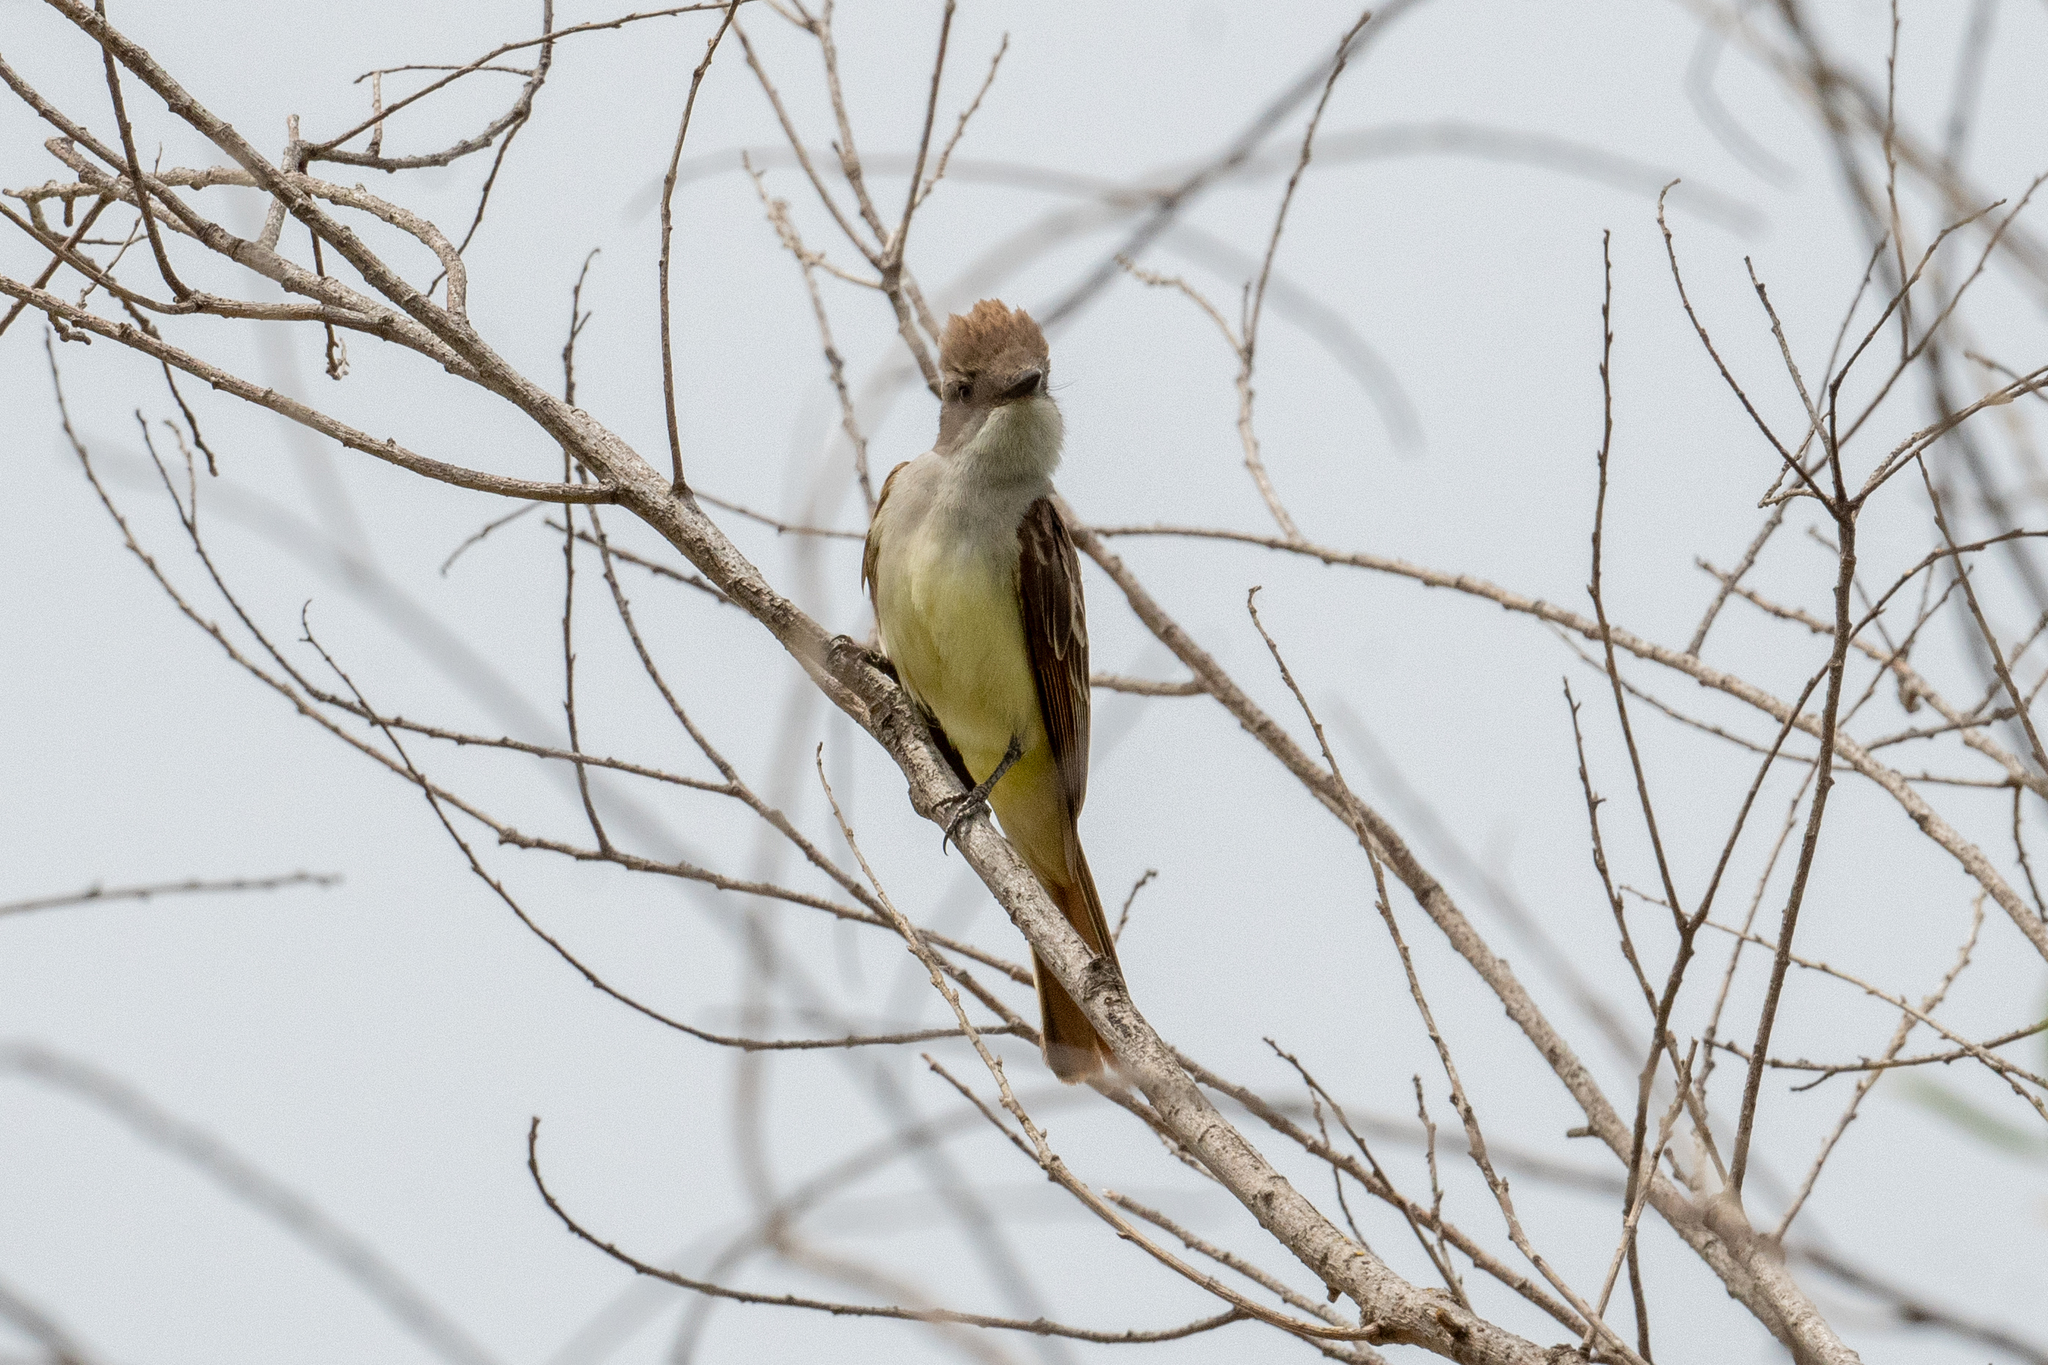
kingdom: Animalia
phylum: Chordata
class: Aves
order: Passeriformes
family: Tyrannidae
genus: Myiarchus
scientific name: Myiarchus cinerascens
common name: Ash-throated flycatcher
